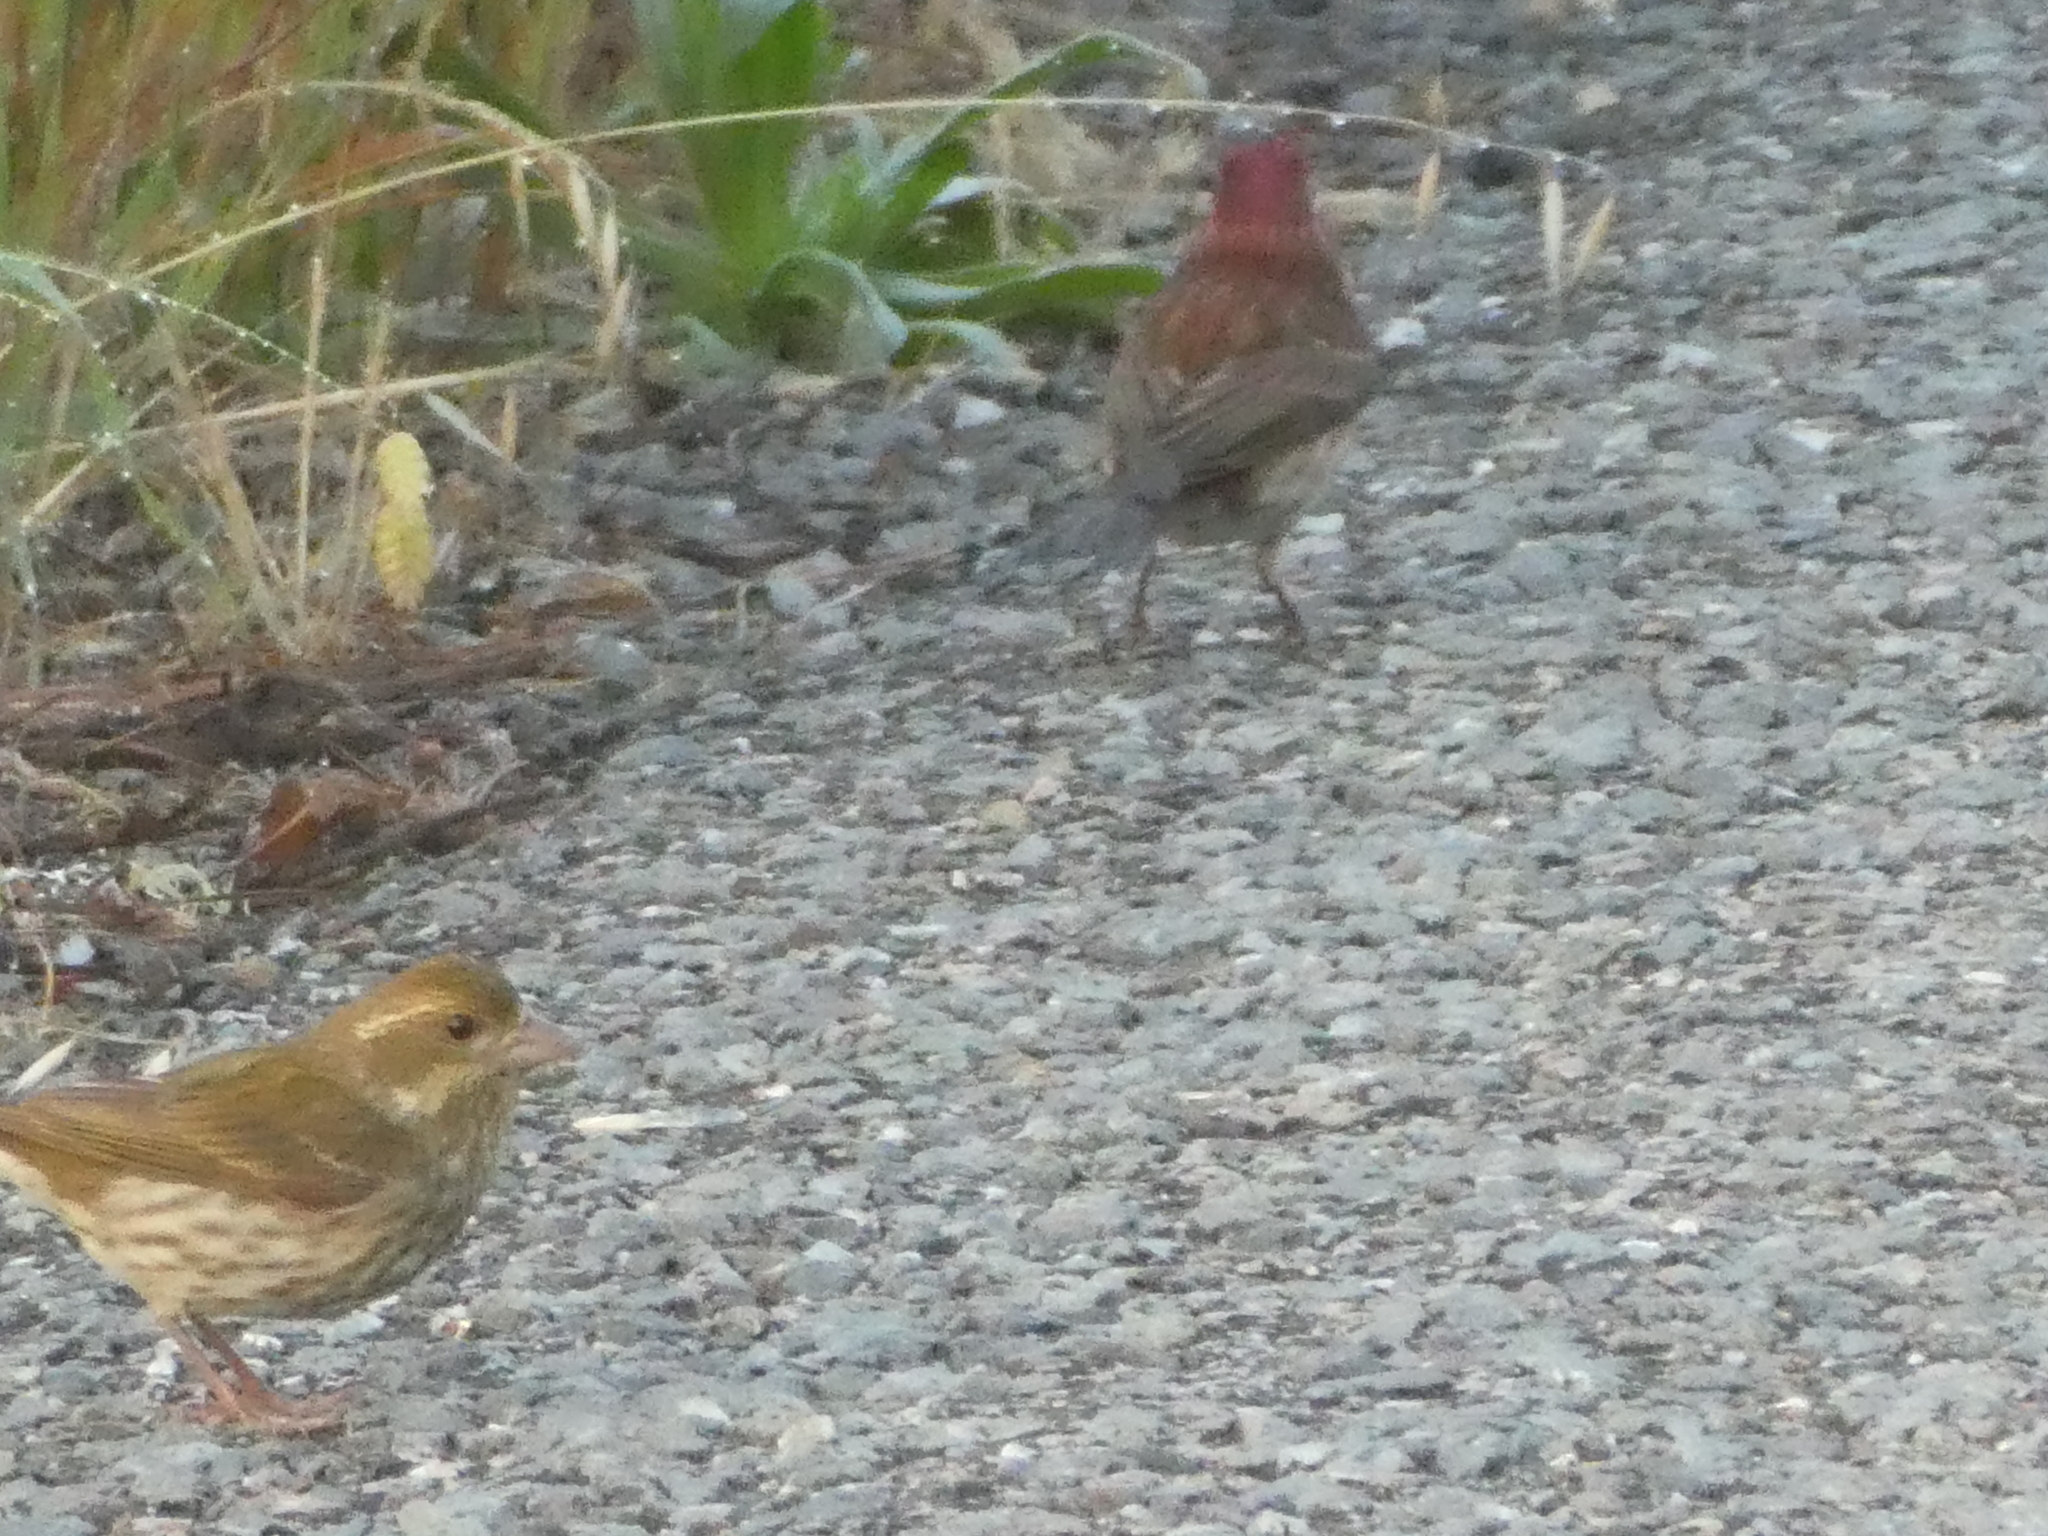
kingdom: Animalia
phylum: Chordata
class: Aves
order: Passeriformes
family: Fringillidae
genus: Haemorhous
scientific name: Haemorhous purpureus
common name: Purple finch
